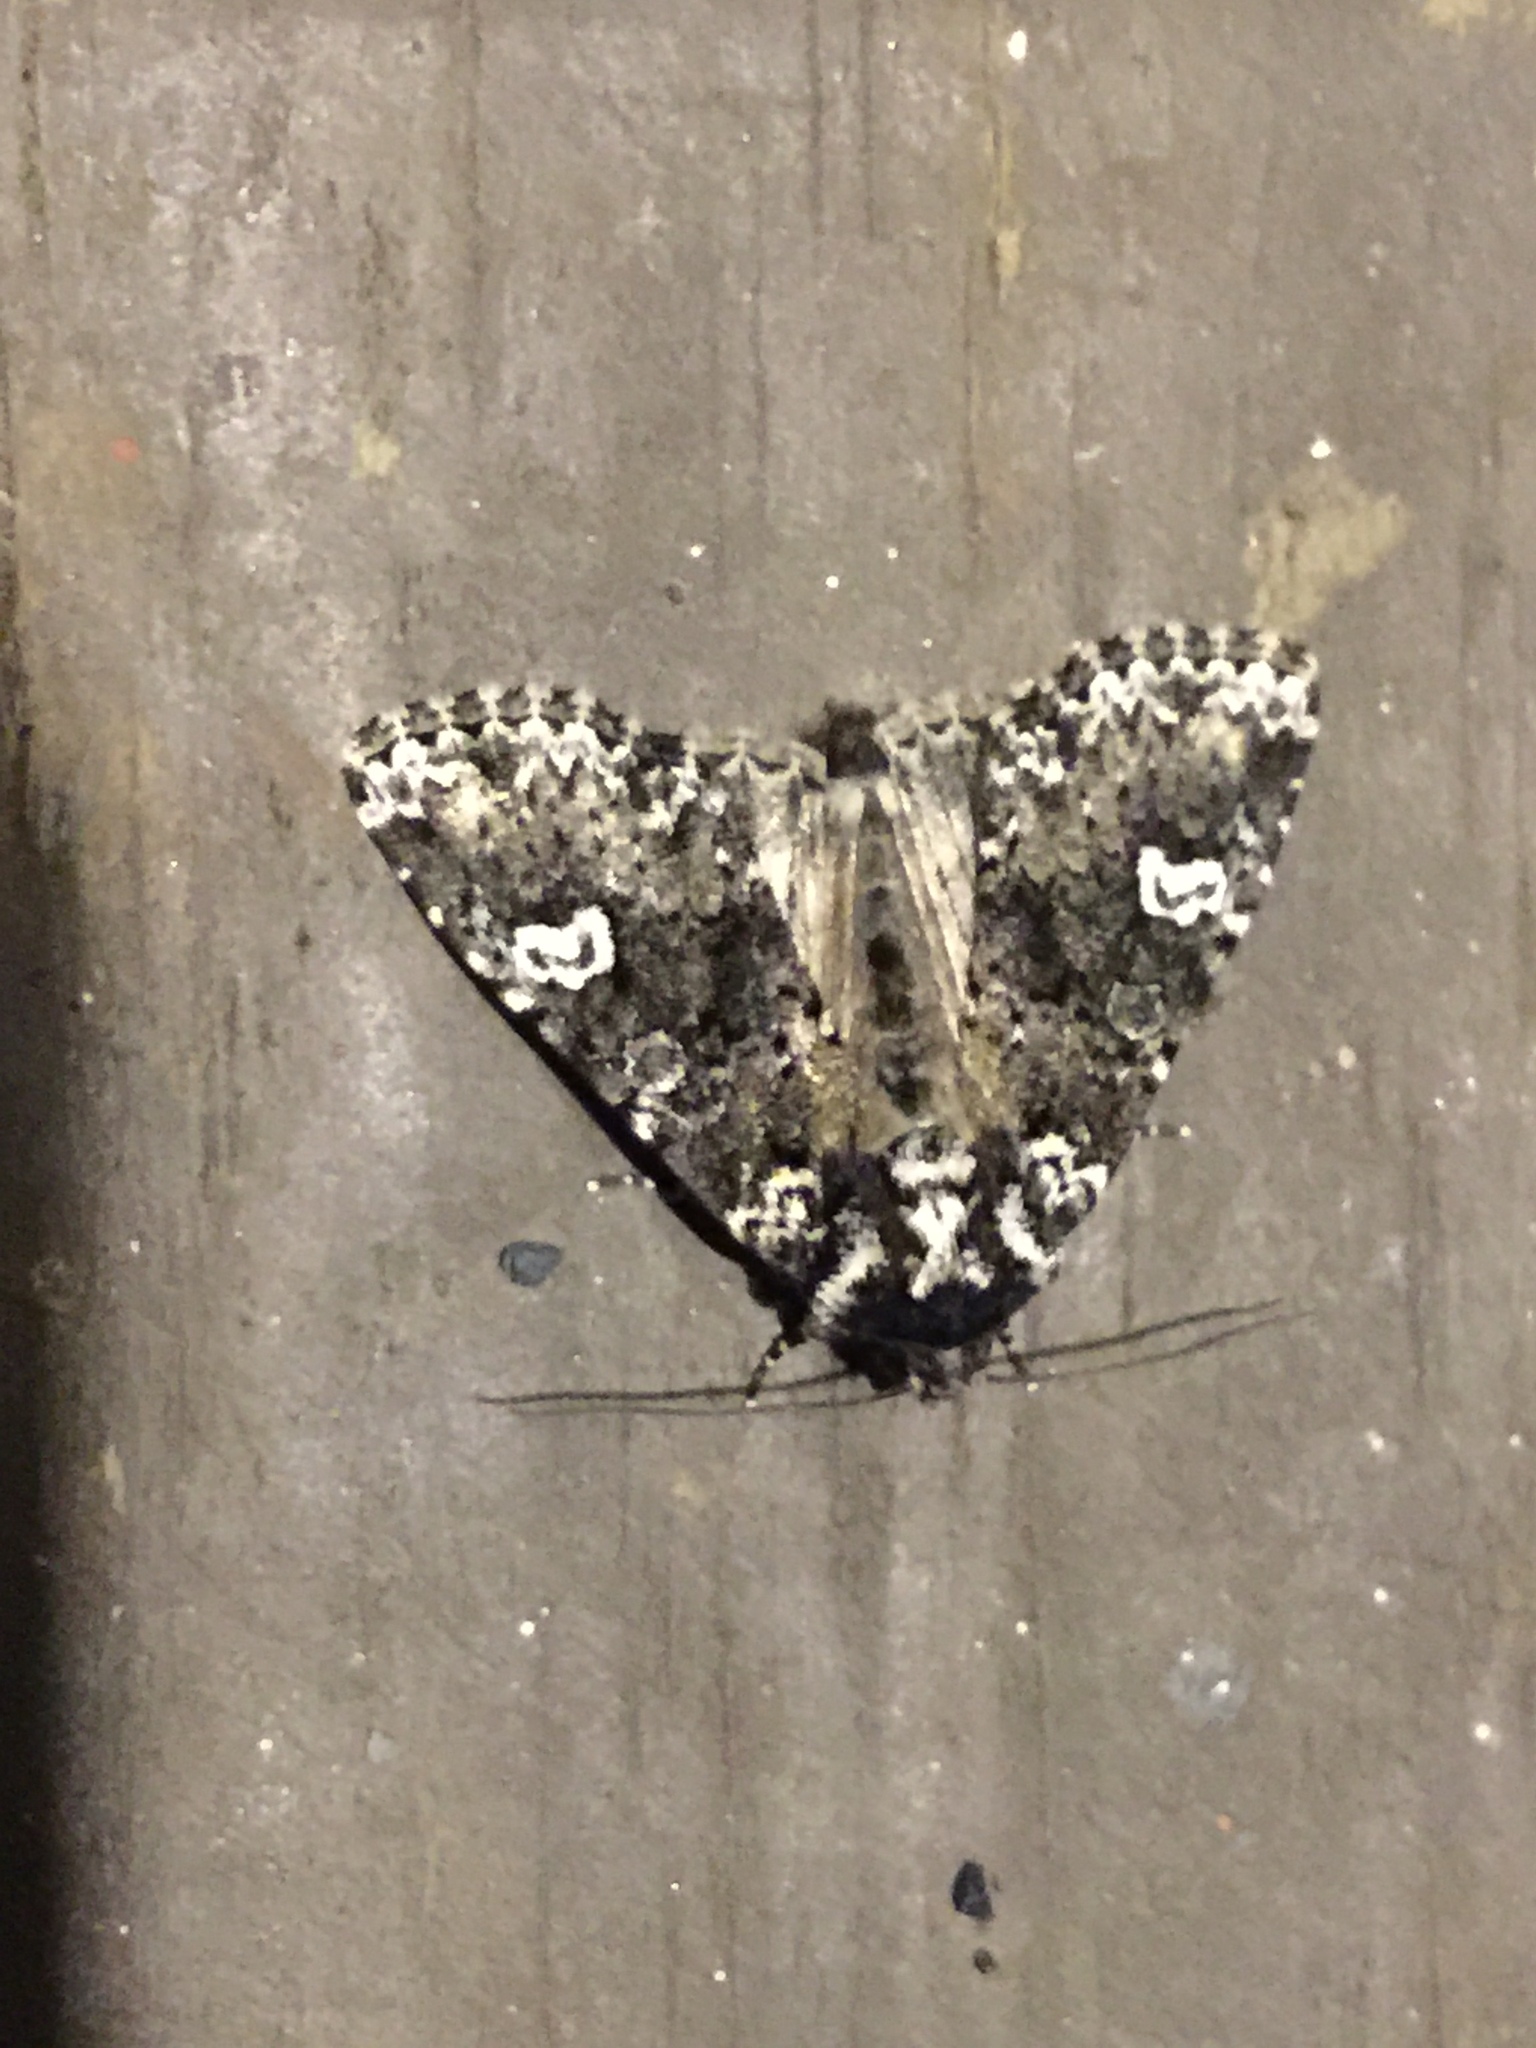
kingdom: Animalia
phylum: Arthropoda
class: Insecta
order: Lepidoptera
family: Noctuidae
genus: Melanchra
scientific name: Melanchra adjuncta
